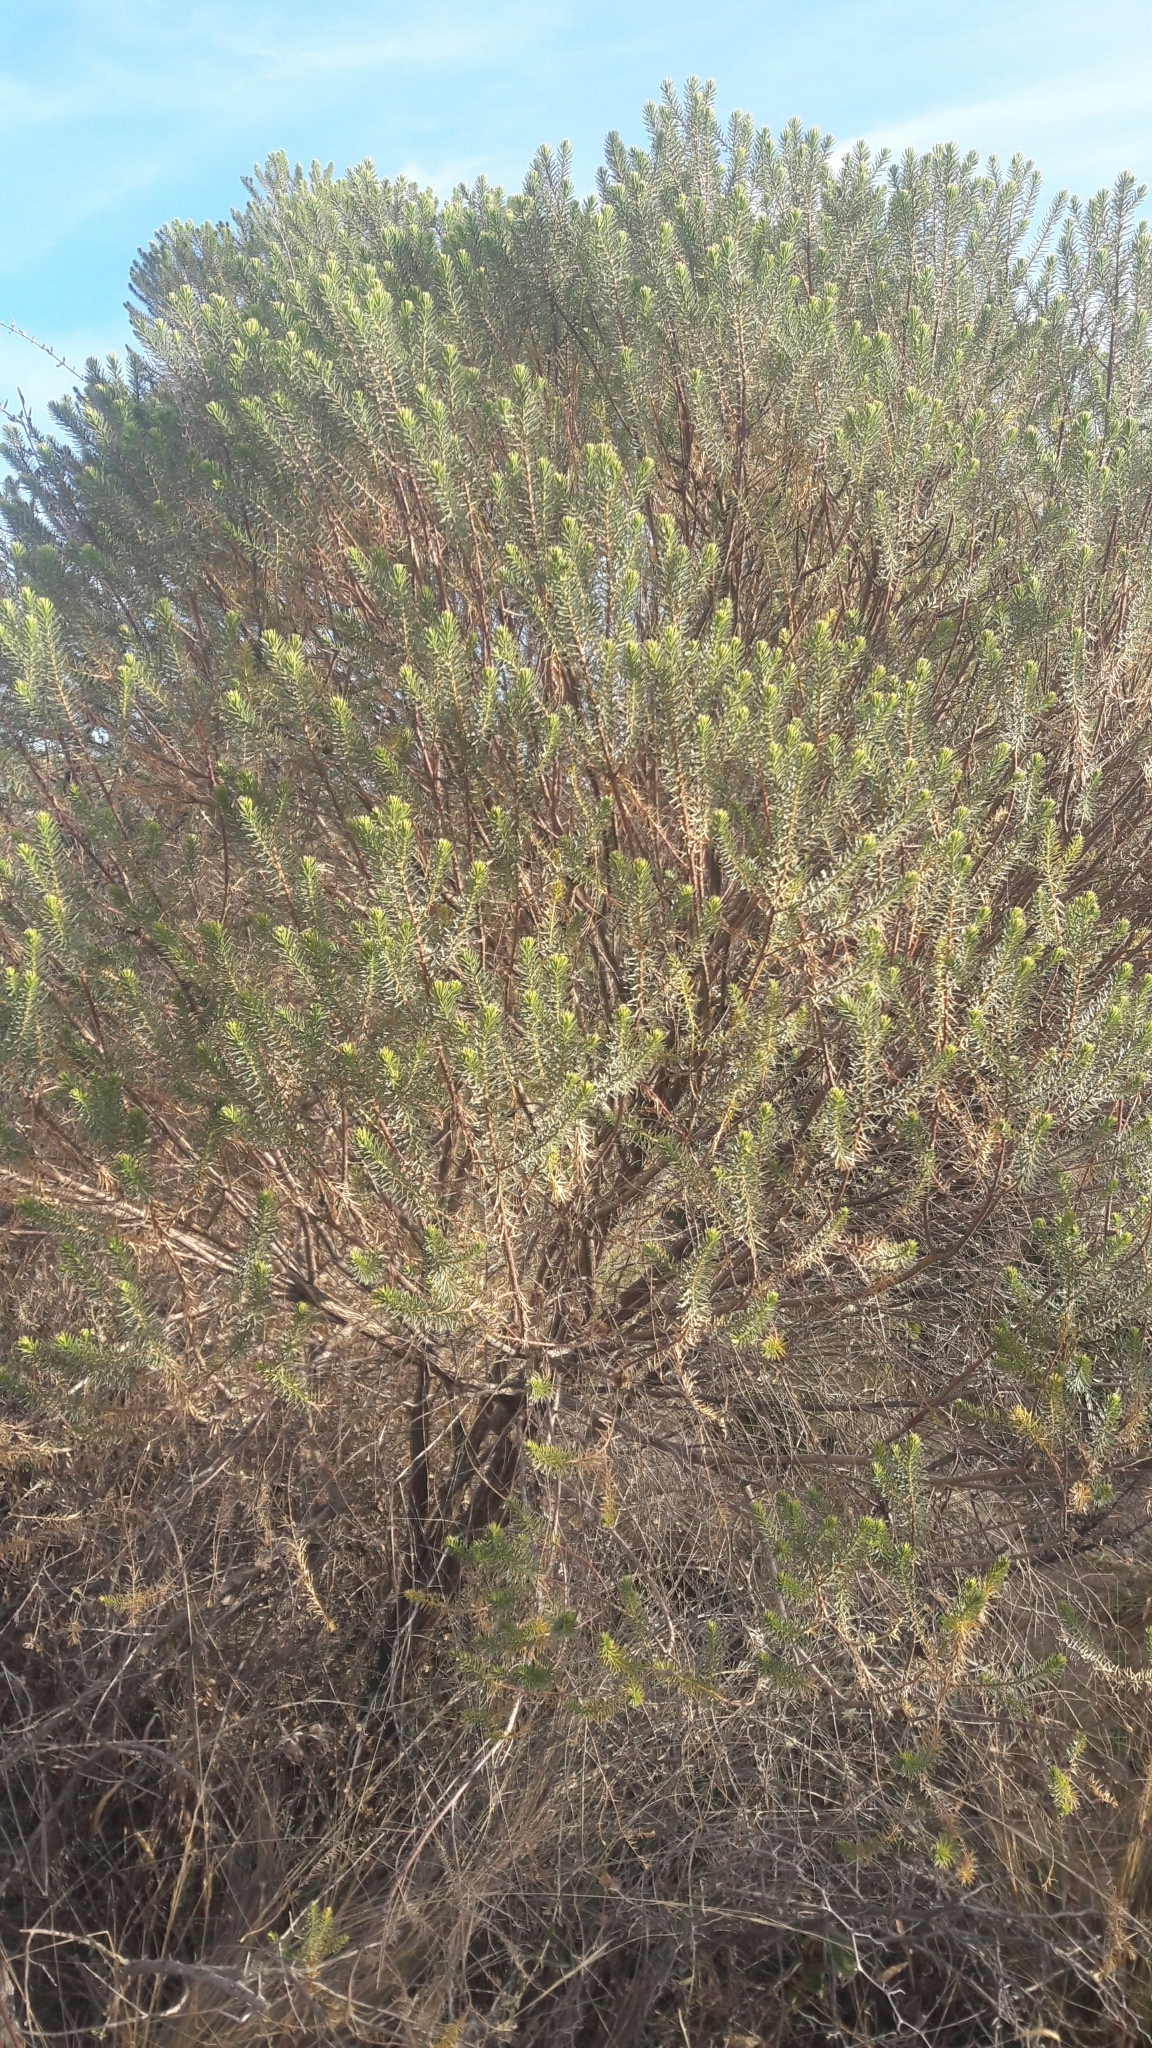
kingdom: Plantae
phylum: Tracheophyta
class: Magnoliopsida
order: Asterales
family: Asteraceae
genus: Baccharis
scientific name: Baccharis aliena
